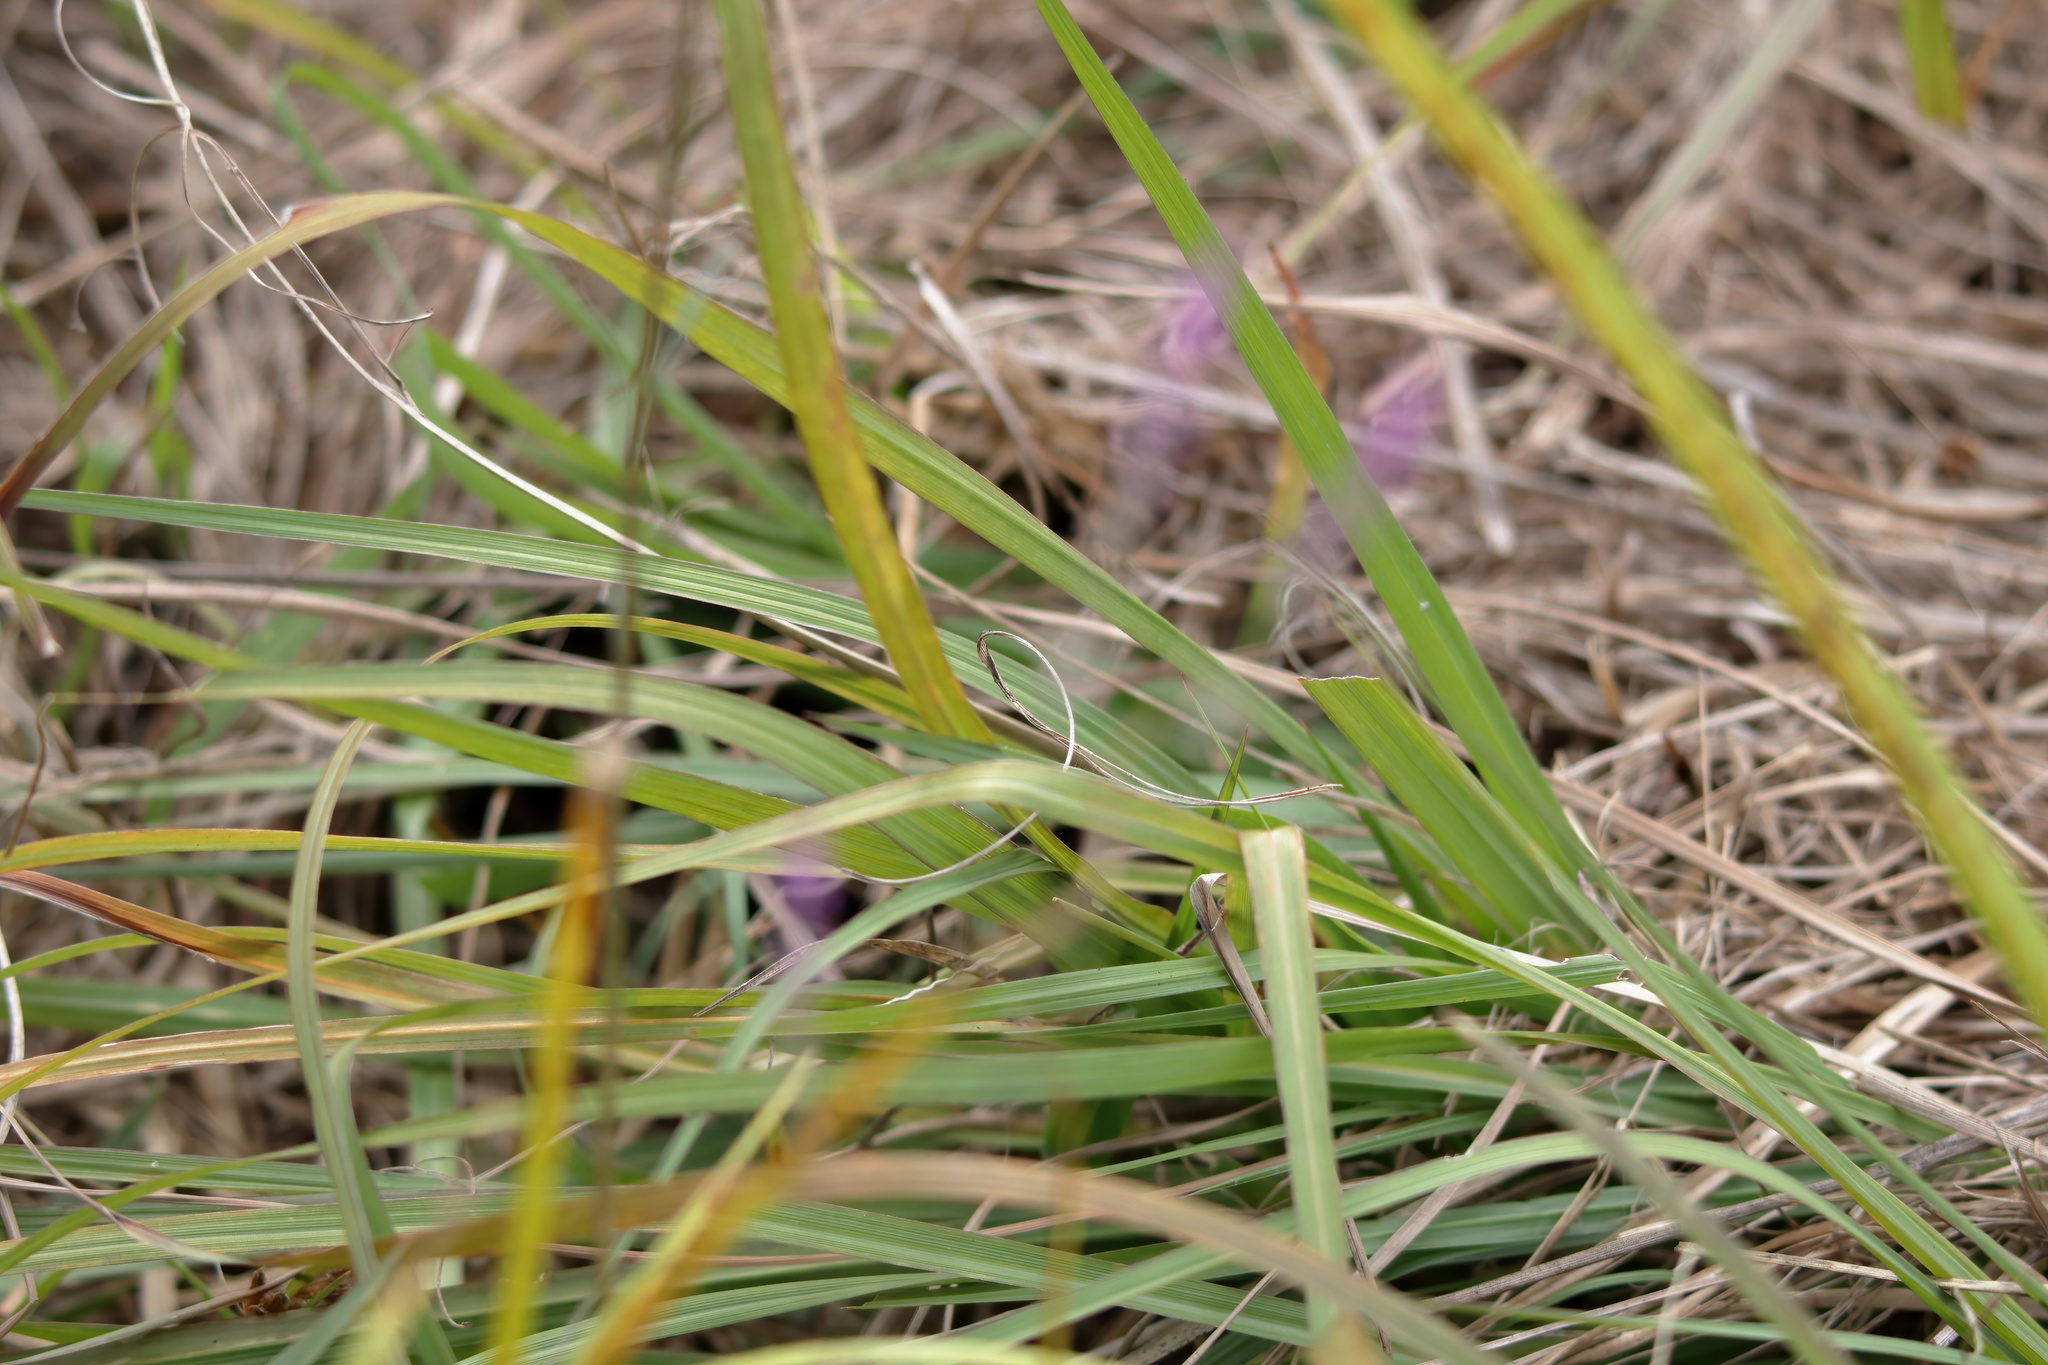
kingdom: Plantae
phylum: Tracheophyta
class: Magnoliopsida
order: Fabales
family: Polygalaceae
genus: Polygala
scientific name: Polygala tenella
